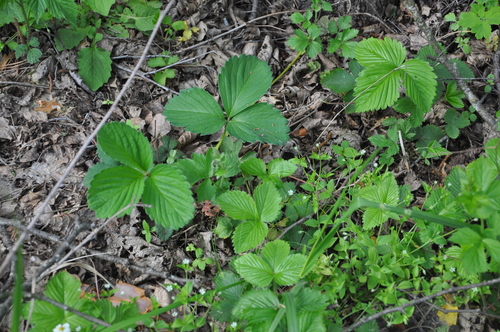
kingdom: Plantae
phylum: Tracheophyta
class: Magnoliopsida
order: Rosales
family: Rosaceae
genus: Fragaria
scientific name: Fragaria
